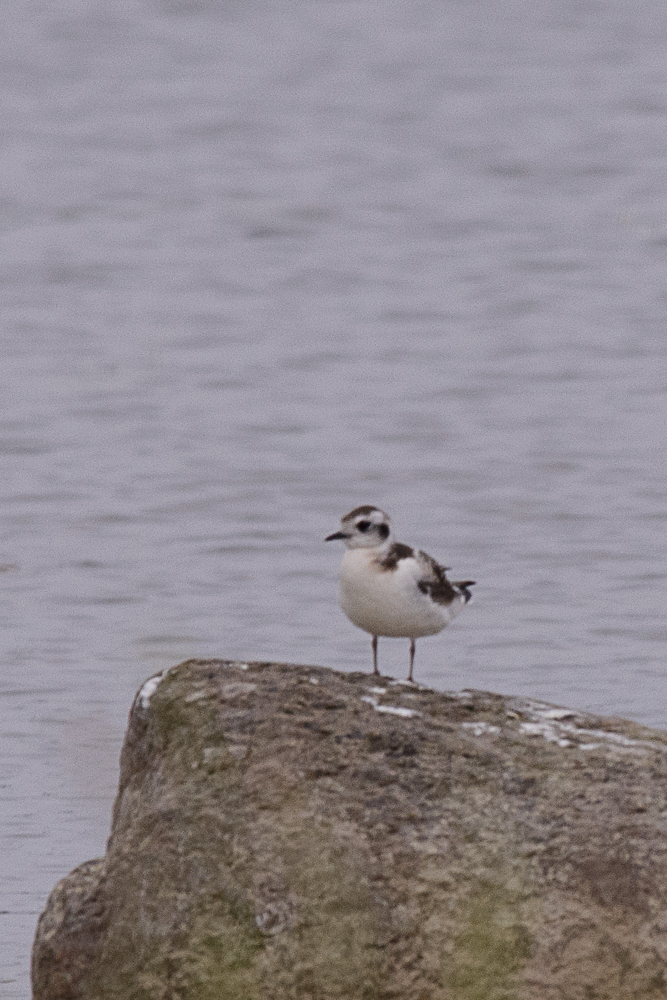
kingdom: Animalia
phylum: Chordata
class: Aves
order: Charadriiformes
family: Laridae
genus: Hydrocoloeus
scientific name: Hydrocoloeus minutus
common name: Little gull
